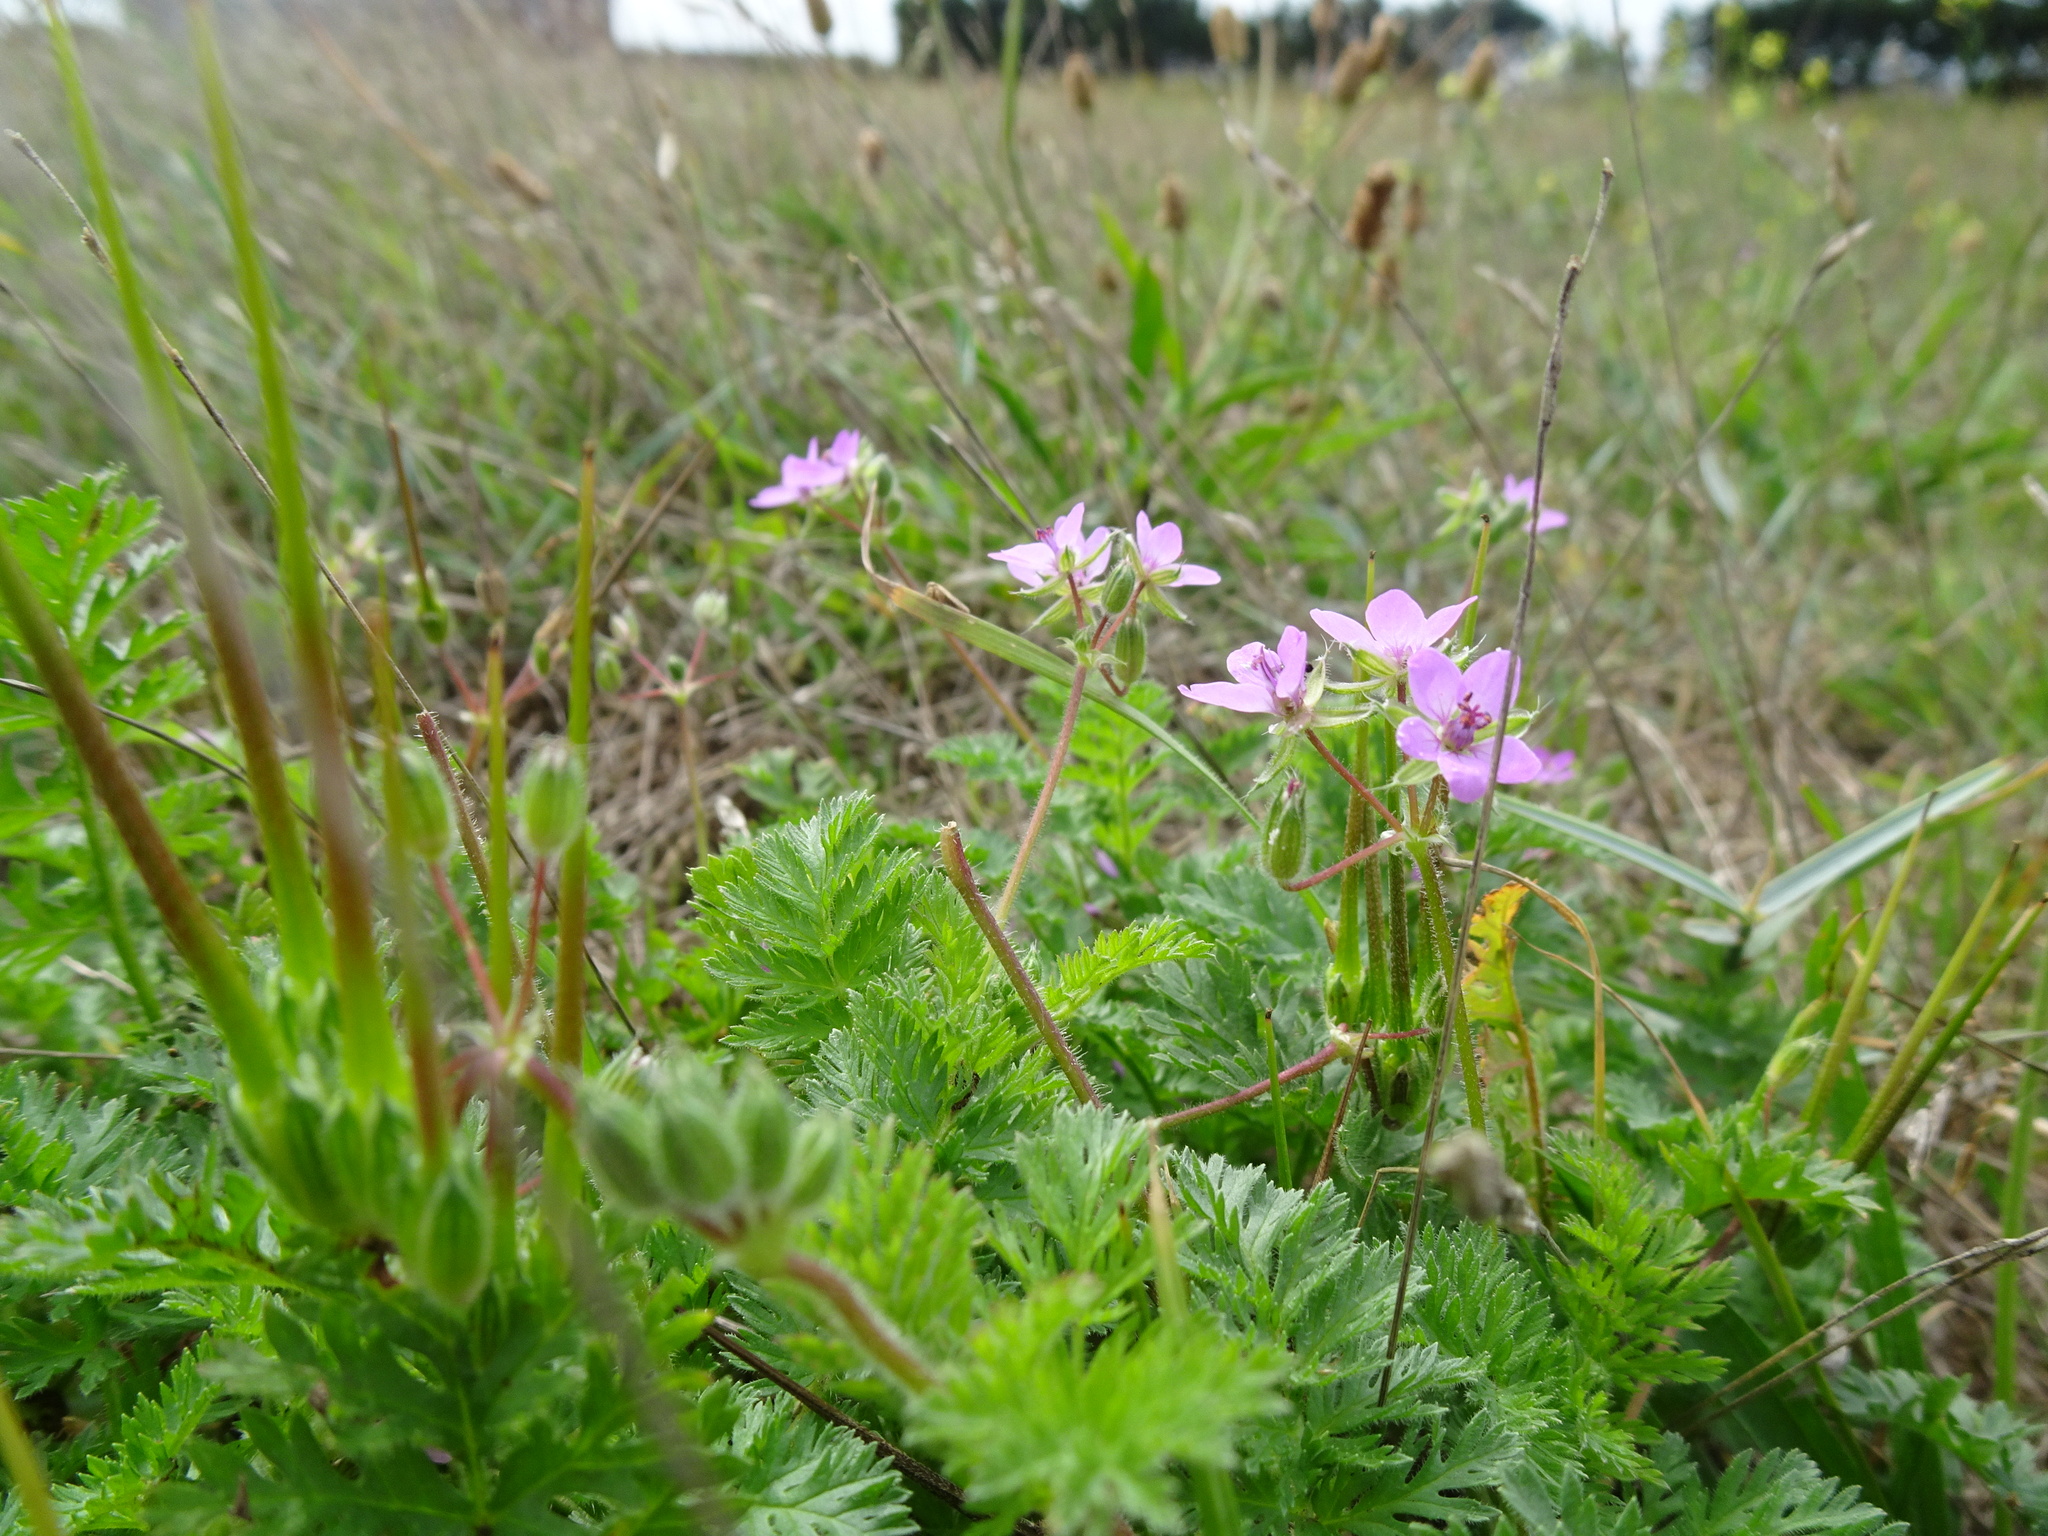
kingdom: Plantae
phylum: Tracheophyta
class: Magnoliopsida
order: Geraniales
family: Geraniaceae
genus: Erodium
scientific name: Erodium cicutarium
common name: Common stork's-bill
